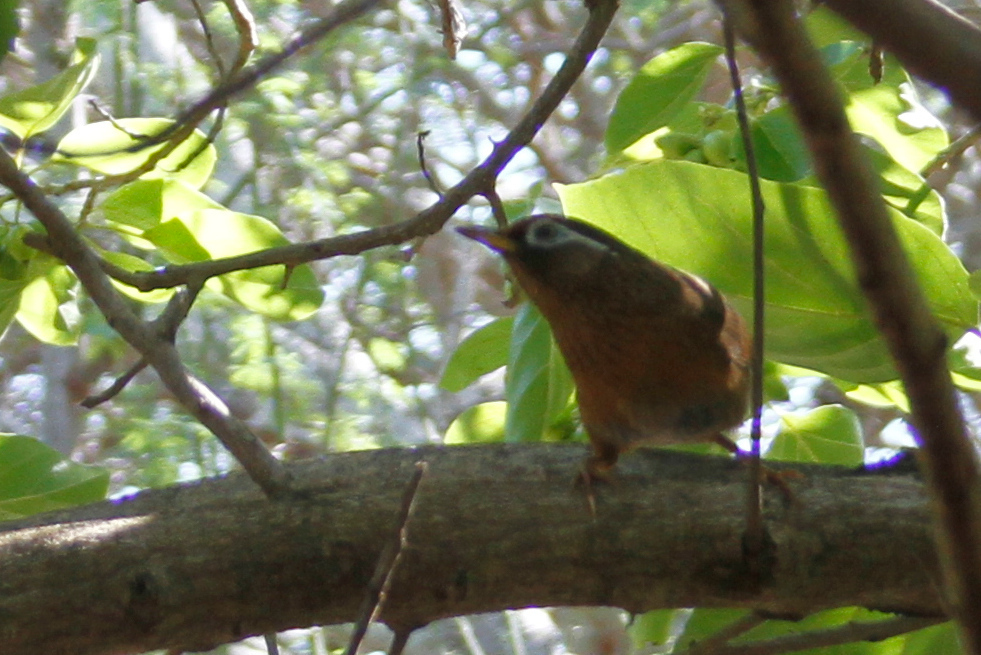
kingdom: Animalia
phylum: Chordata
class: Aves
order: Passeriformes
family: Leiothrichidae
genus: Garrulax
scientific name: Garrulax canorus
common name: Chinese hwamei
